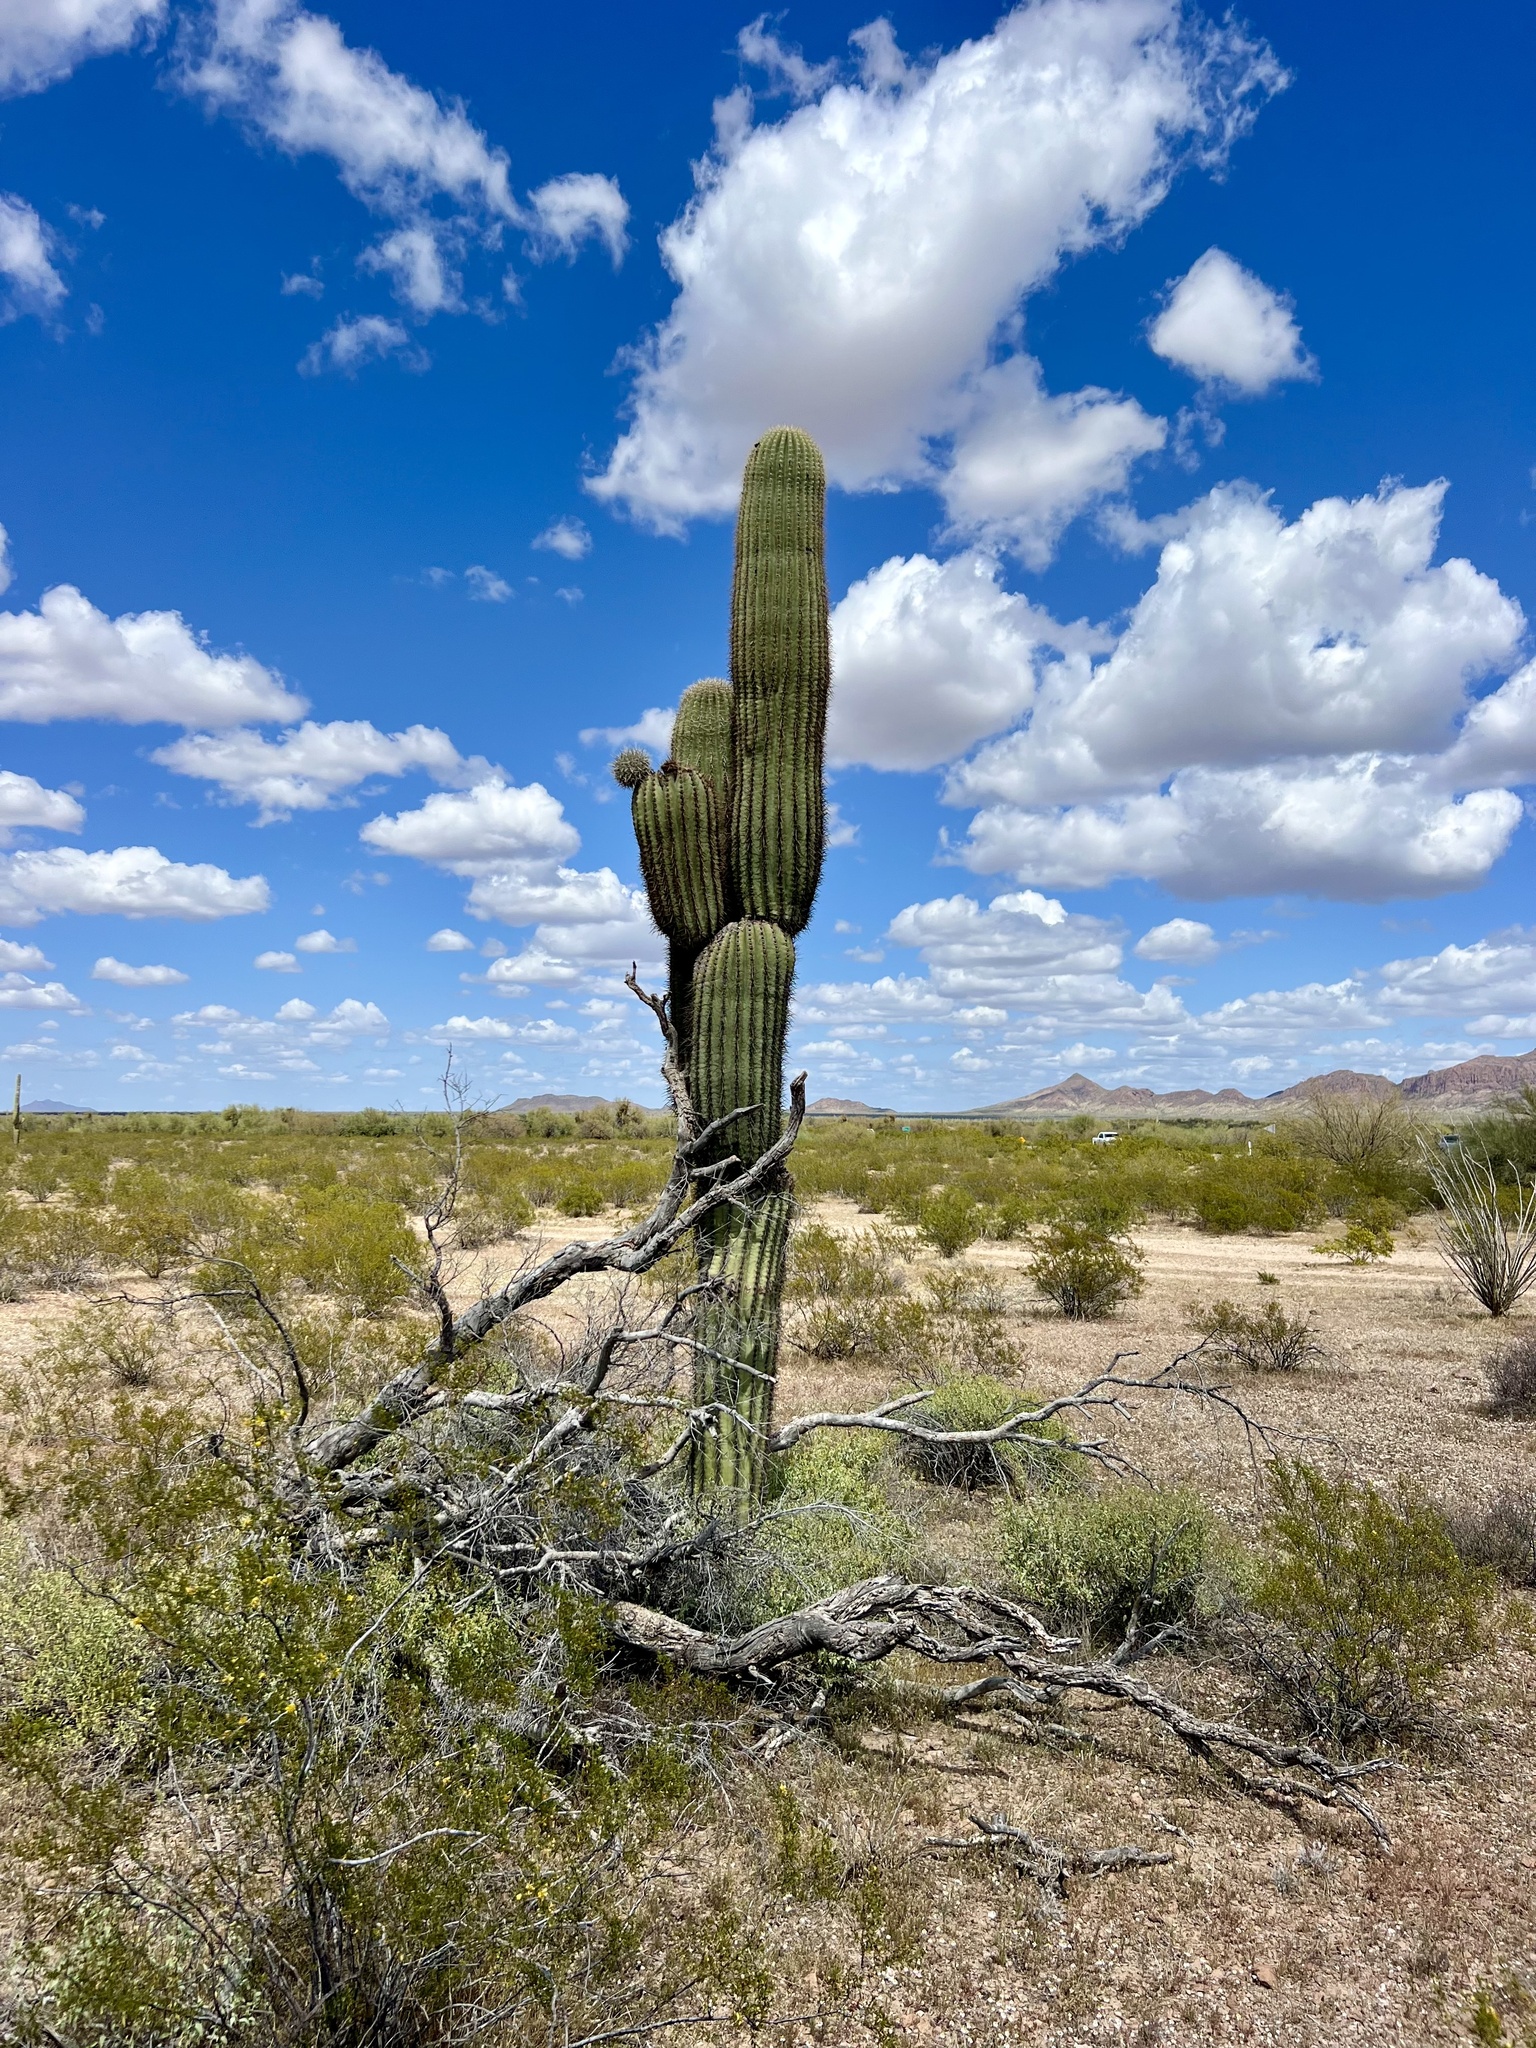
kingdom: Plantae
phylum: Tracheophyta
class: Magnoliopsida
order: Caryophyllales
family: Cactaceae
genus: Carnegiea
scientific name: Carnegiea gigantea
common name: Saguaro
